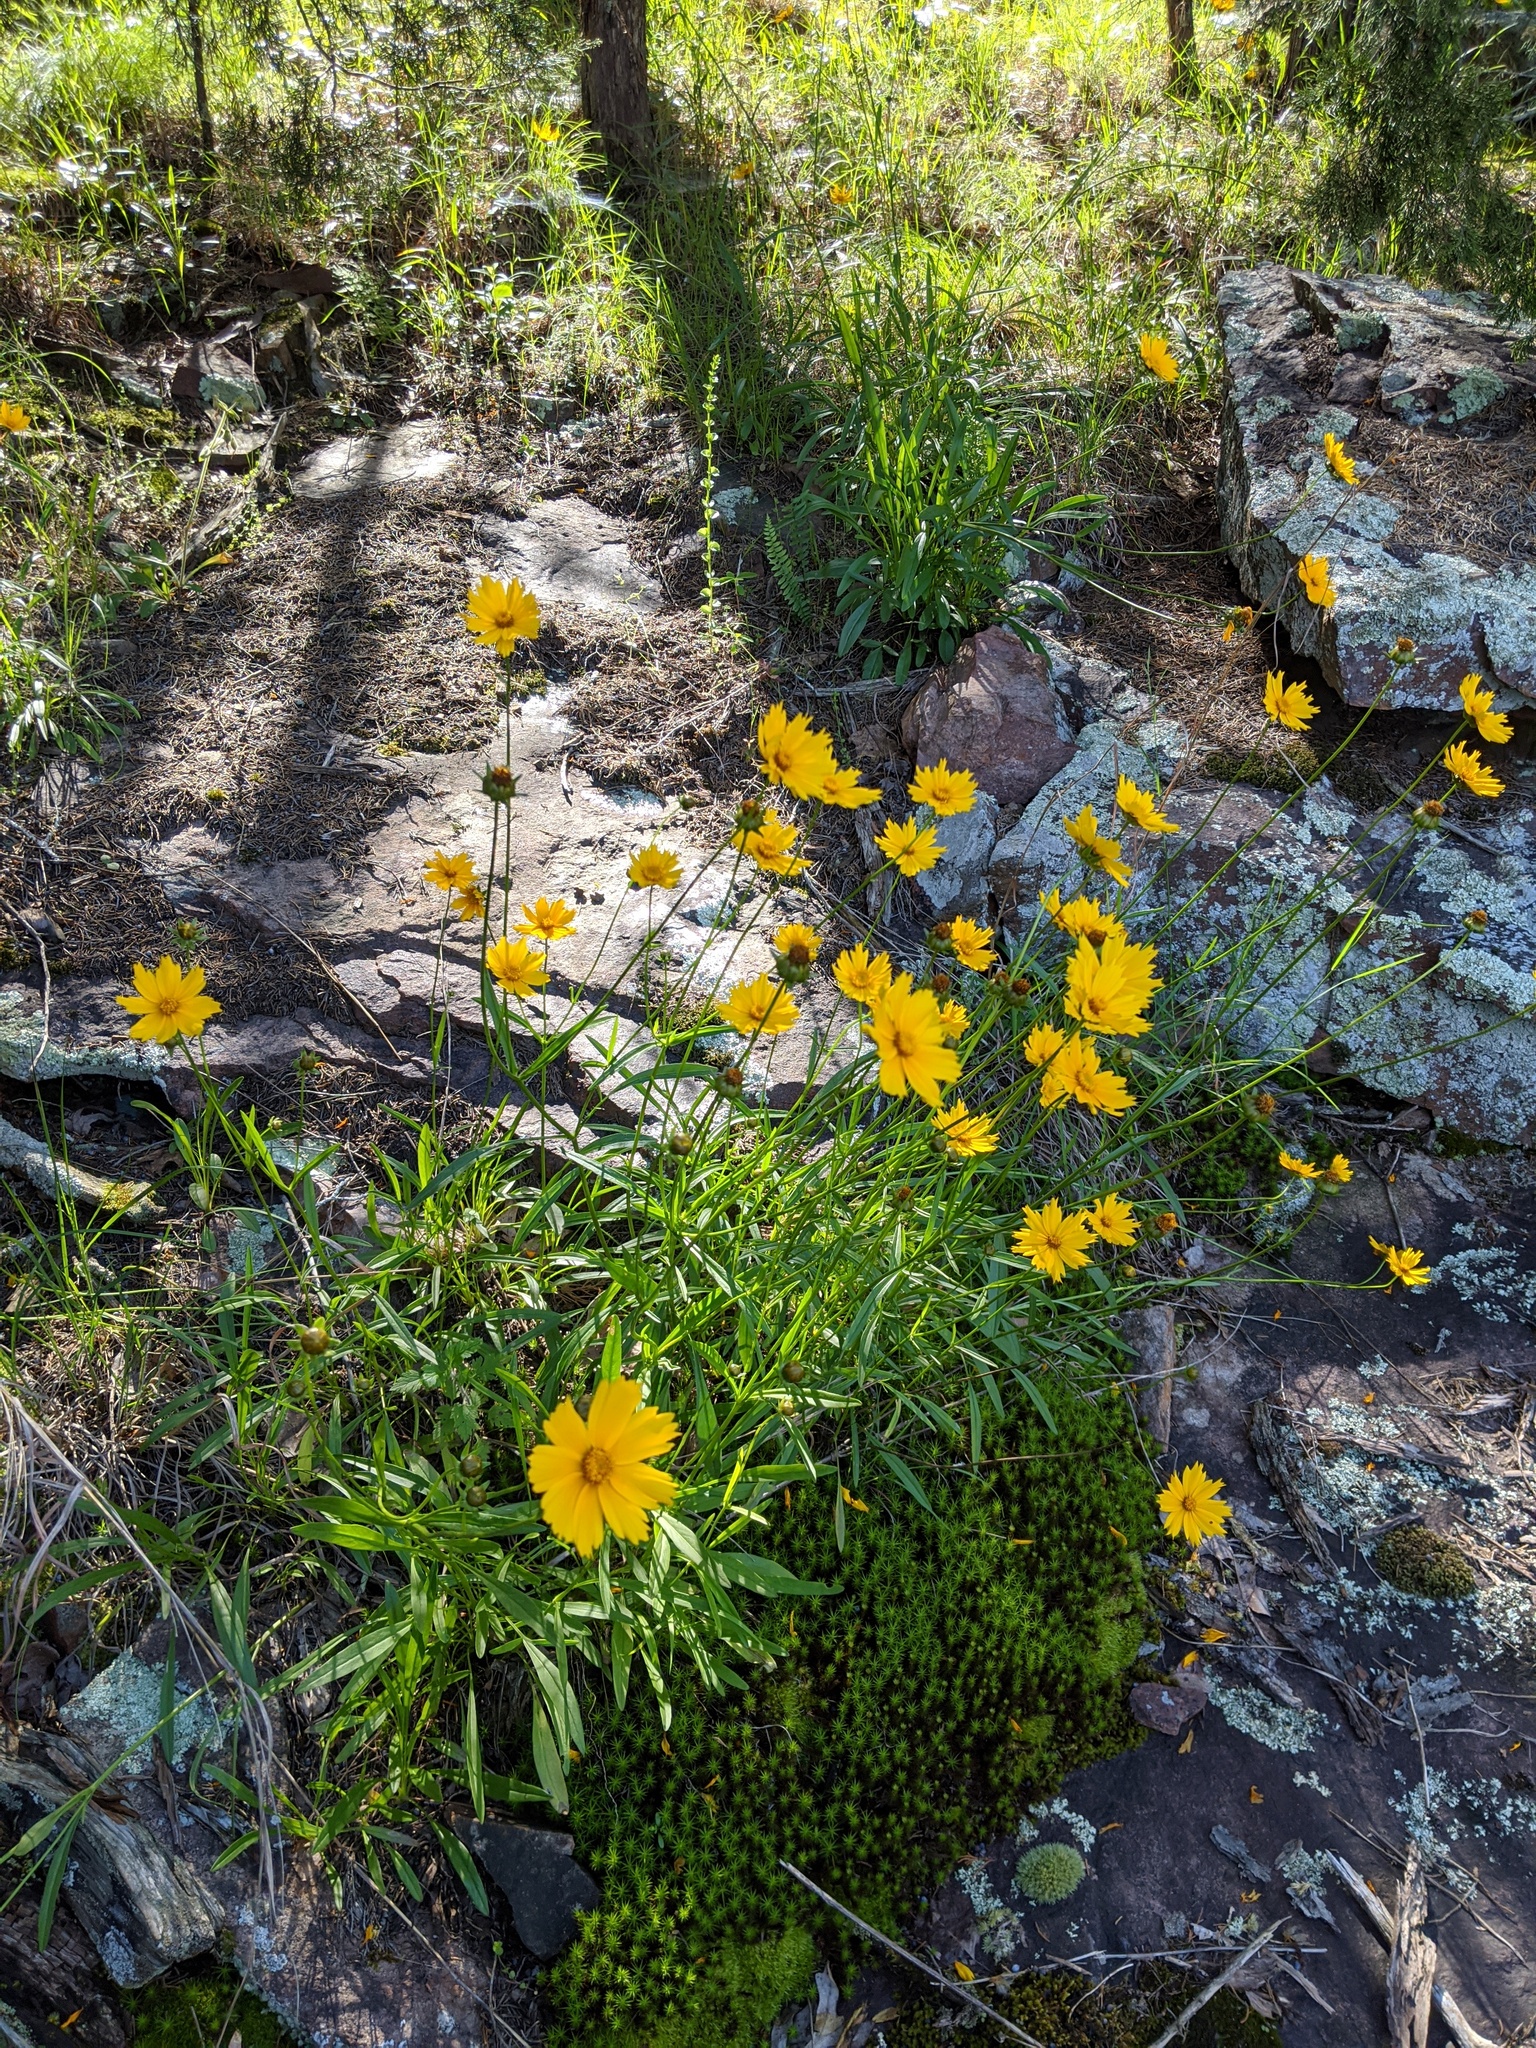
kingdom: Plantae
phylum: Tracheophyta
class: Magnoliopsida
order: Asterales
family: Asteraceae
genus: Coreopsis
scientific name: Coreopsis lanceolata
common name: Garden coreopsis
